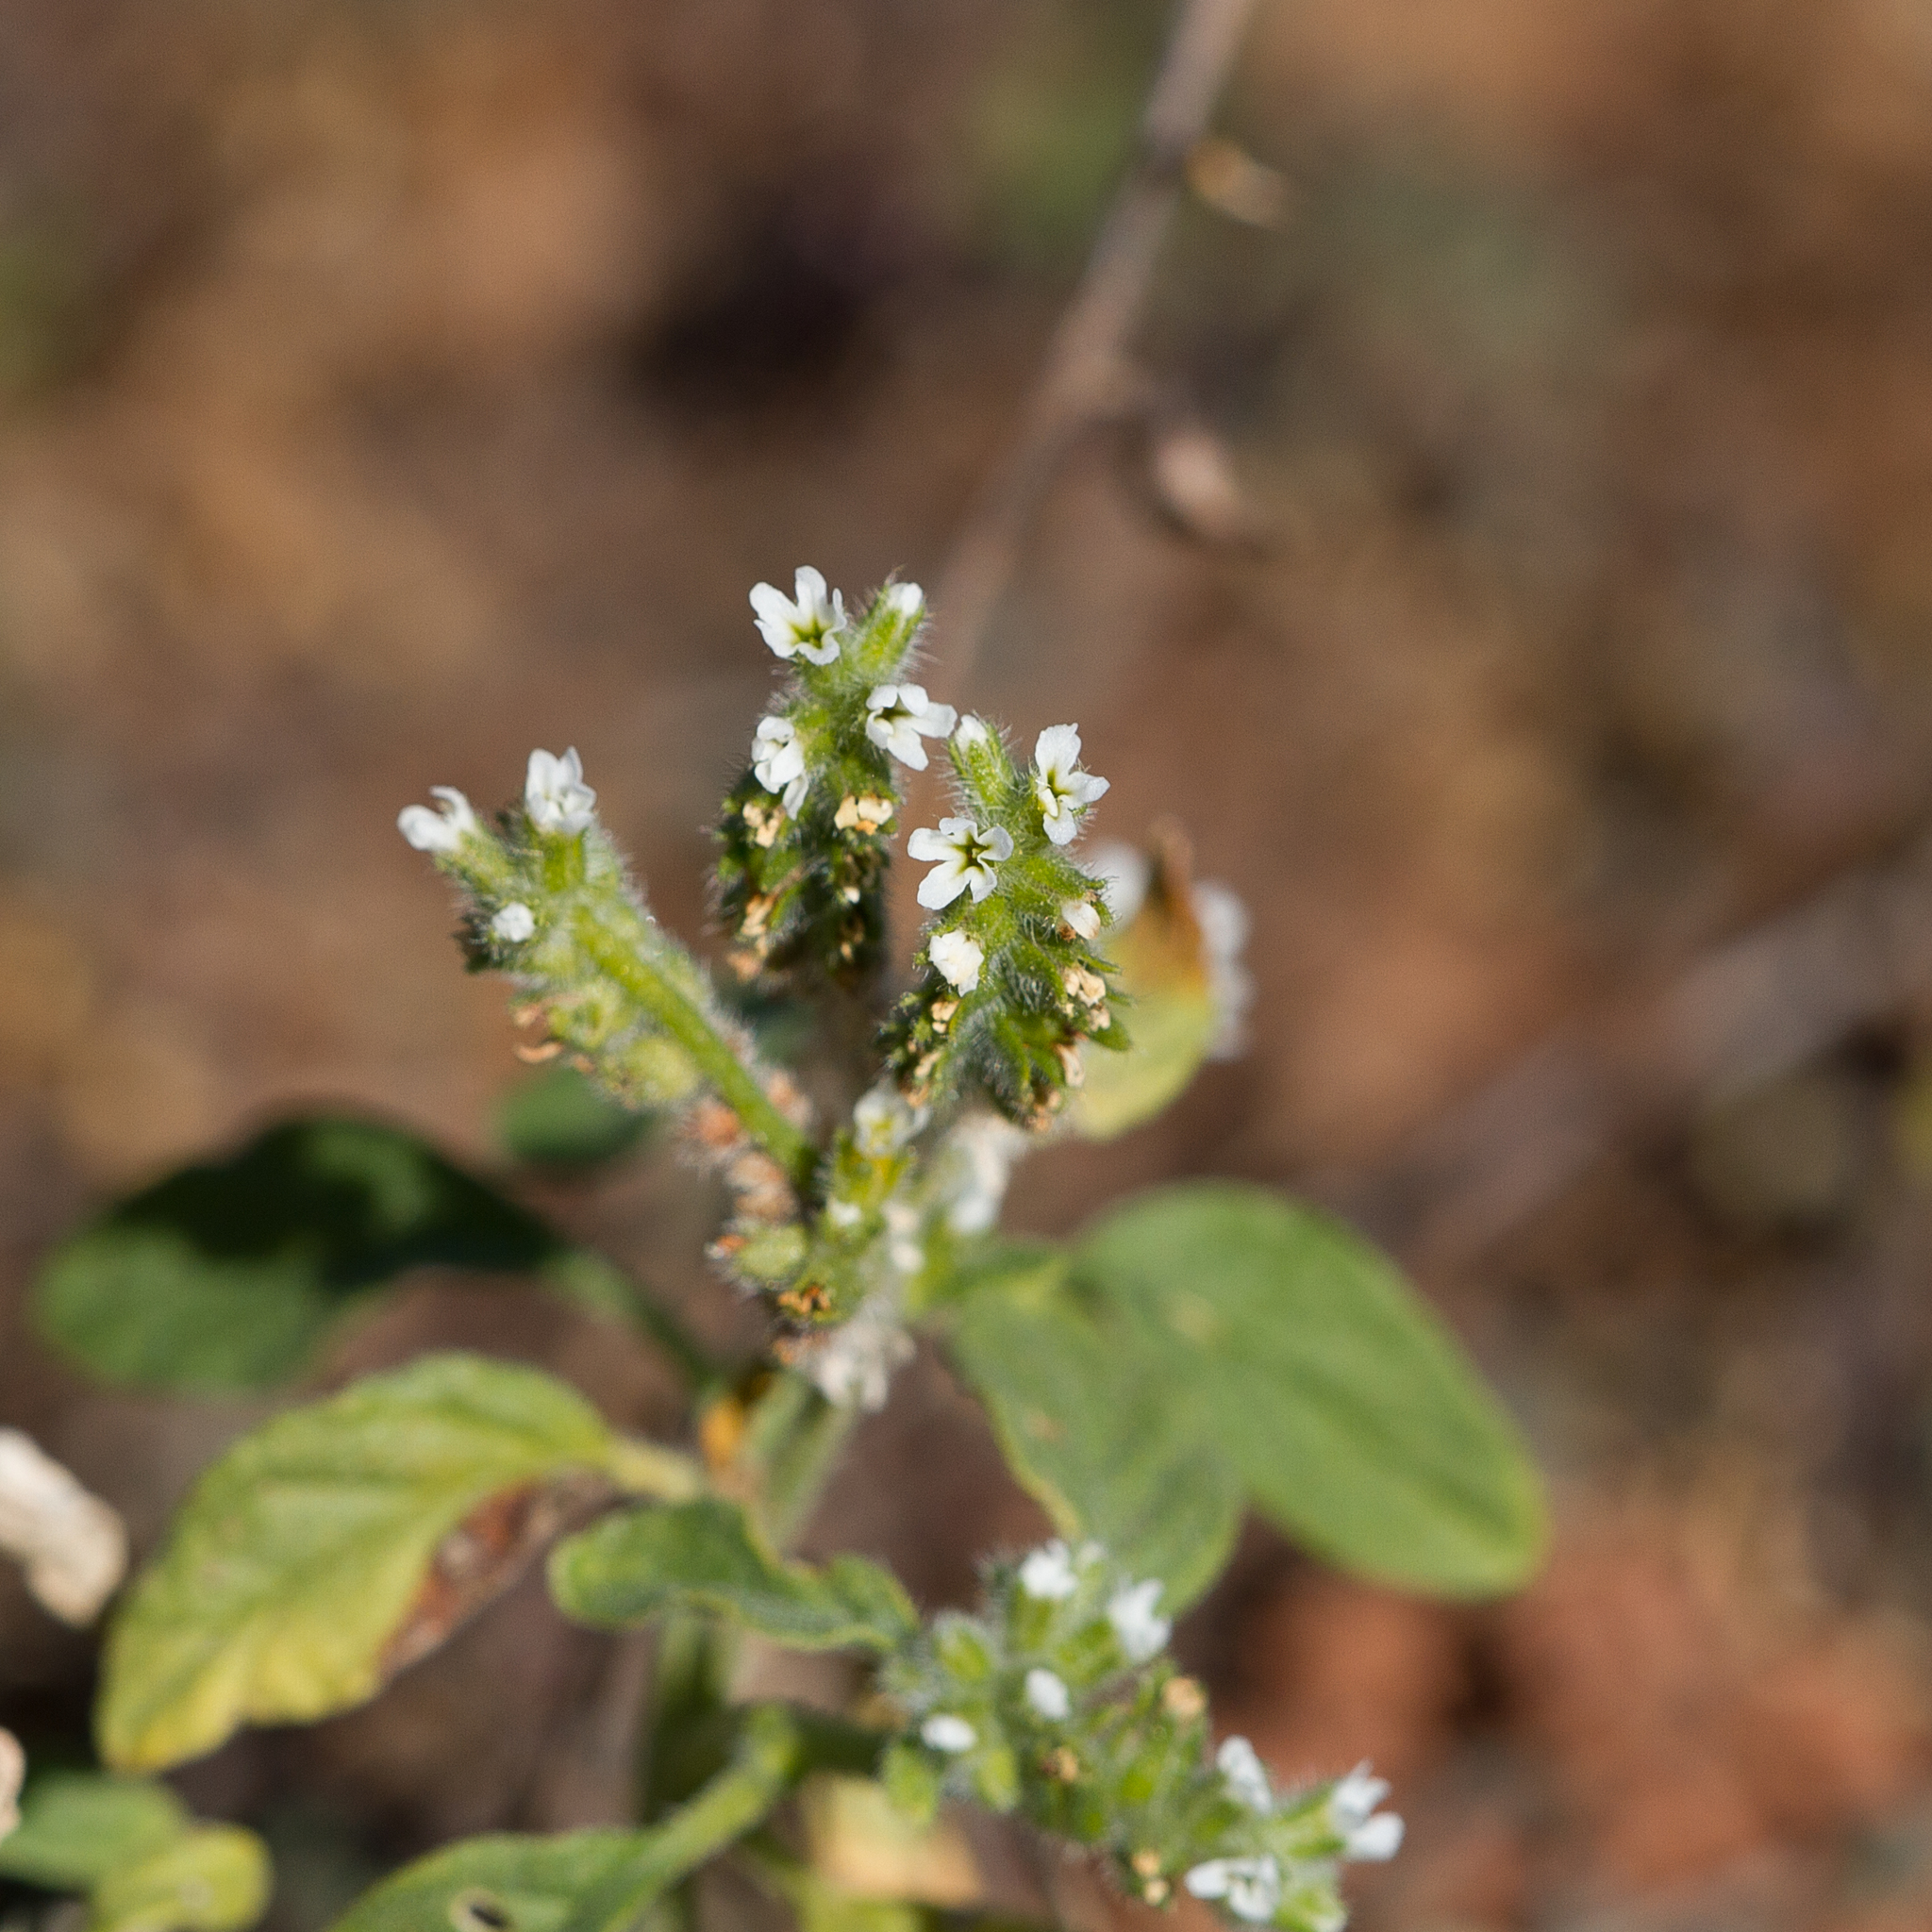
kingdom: Plantae
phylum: Tracheophyta
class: Magnoliopsida
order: Boraginales
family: Heliotropiaceae
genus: Heliotropium
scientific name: Heliotropium europaeum
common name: European heliotrope
